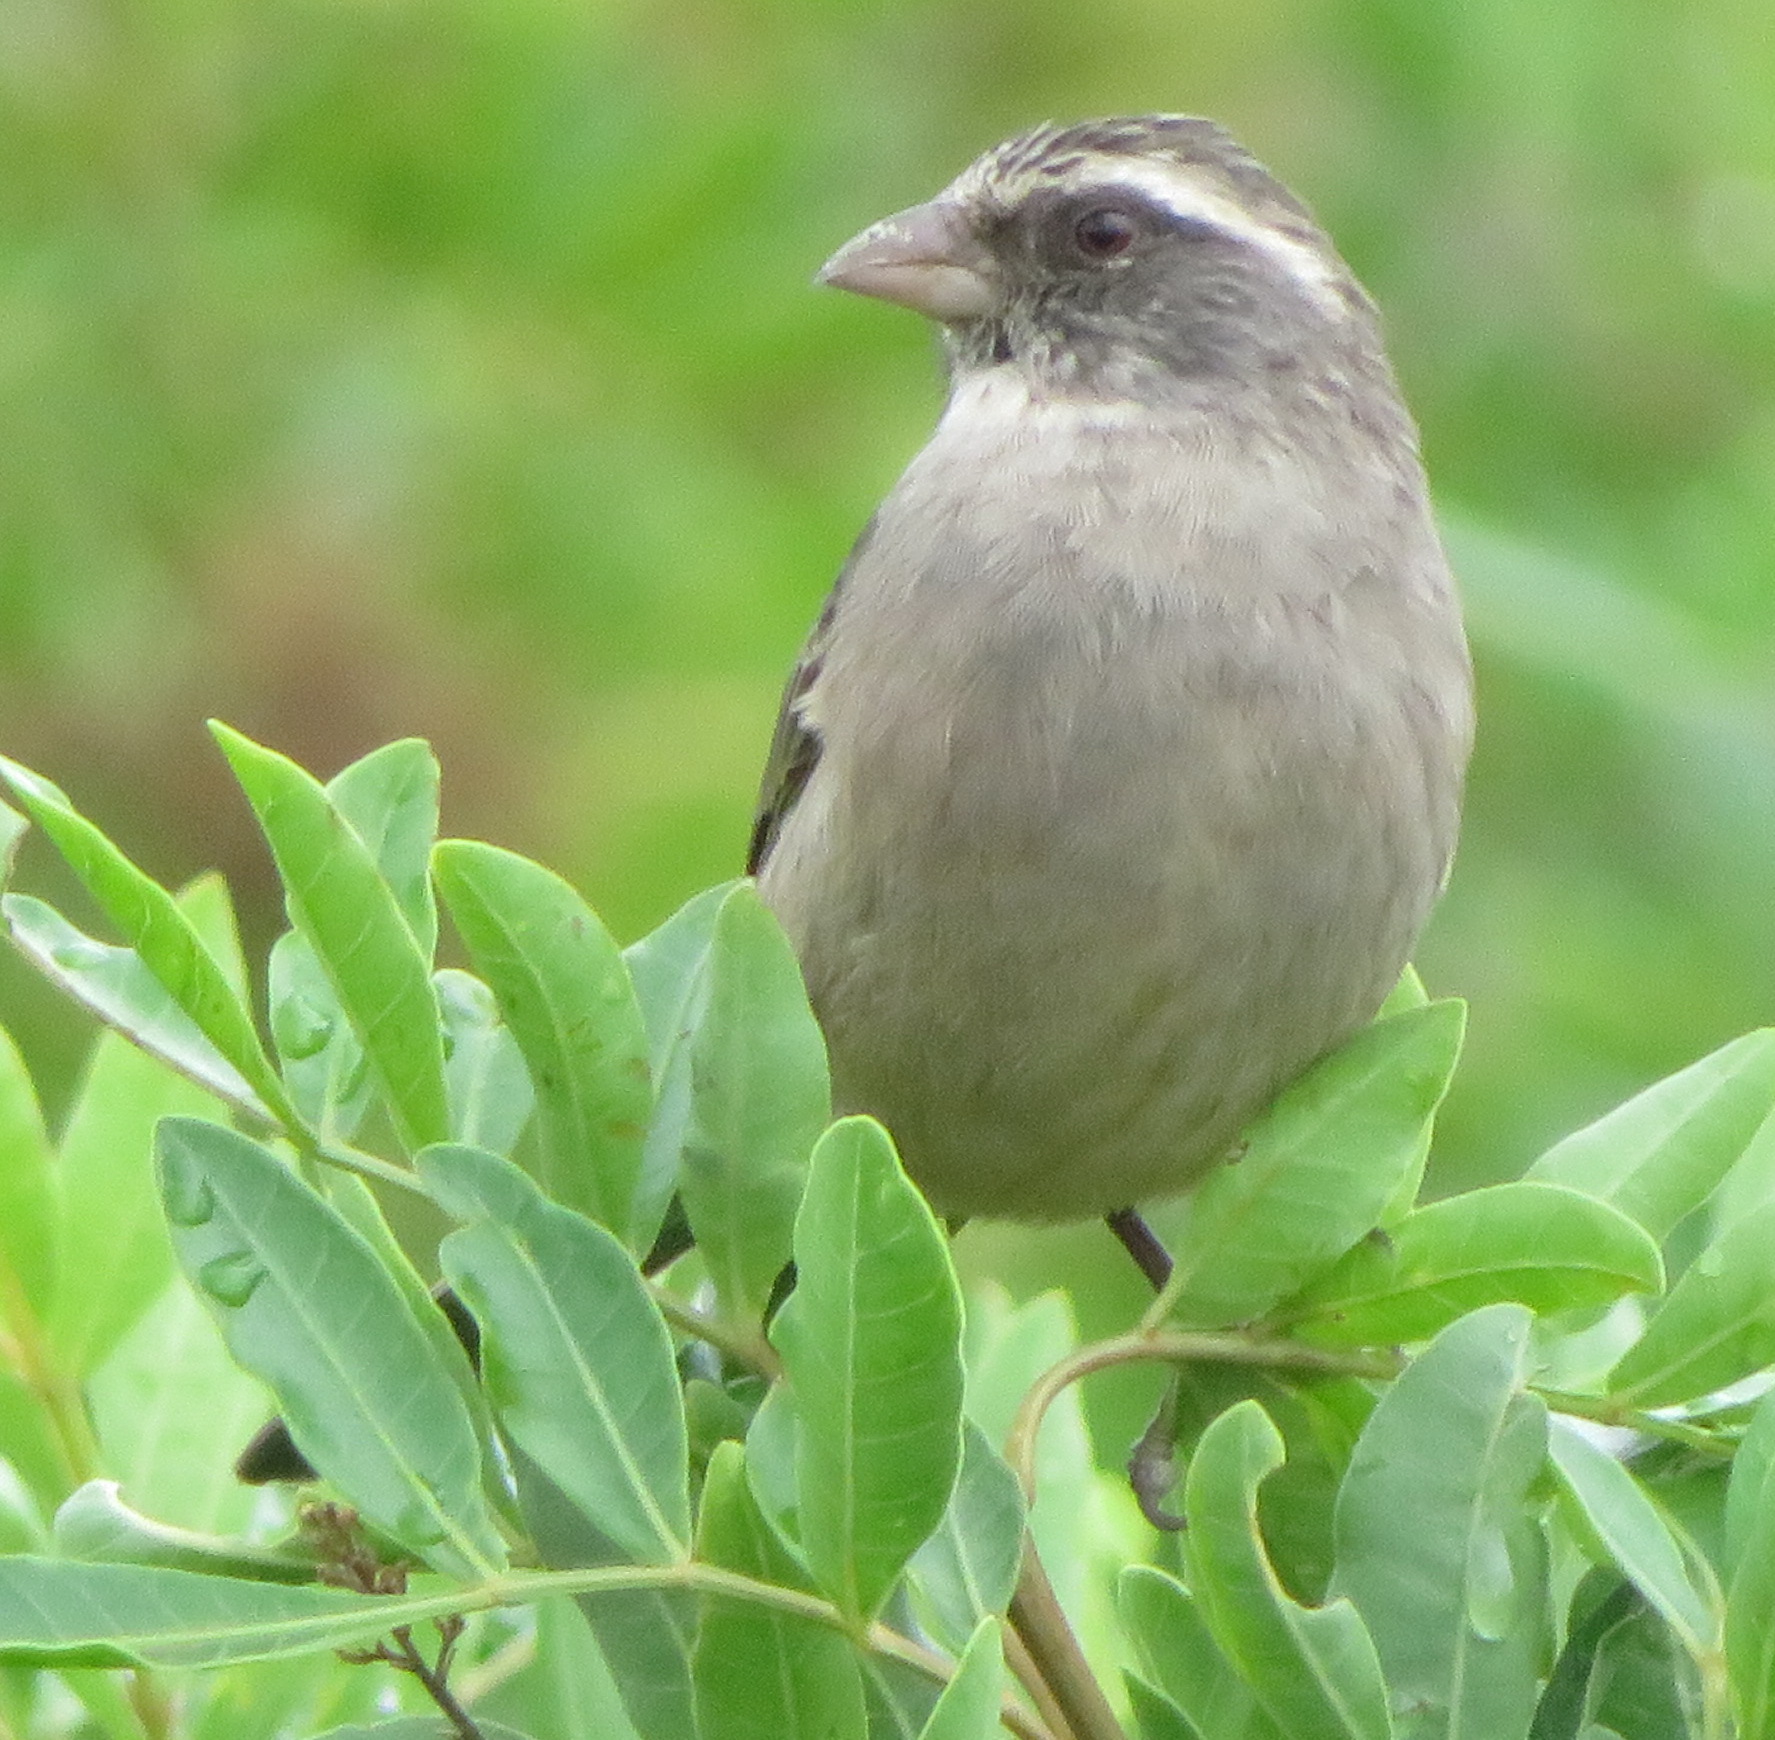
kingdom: Animalia
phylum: Chordata
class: Aves
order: Passeriformes
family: Fringillidae
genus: Crithagra
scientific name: Crithagra gularis
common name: Streaky-headed seedeater
